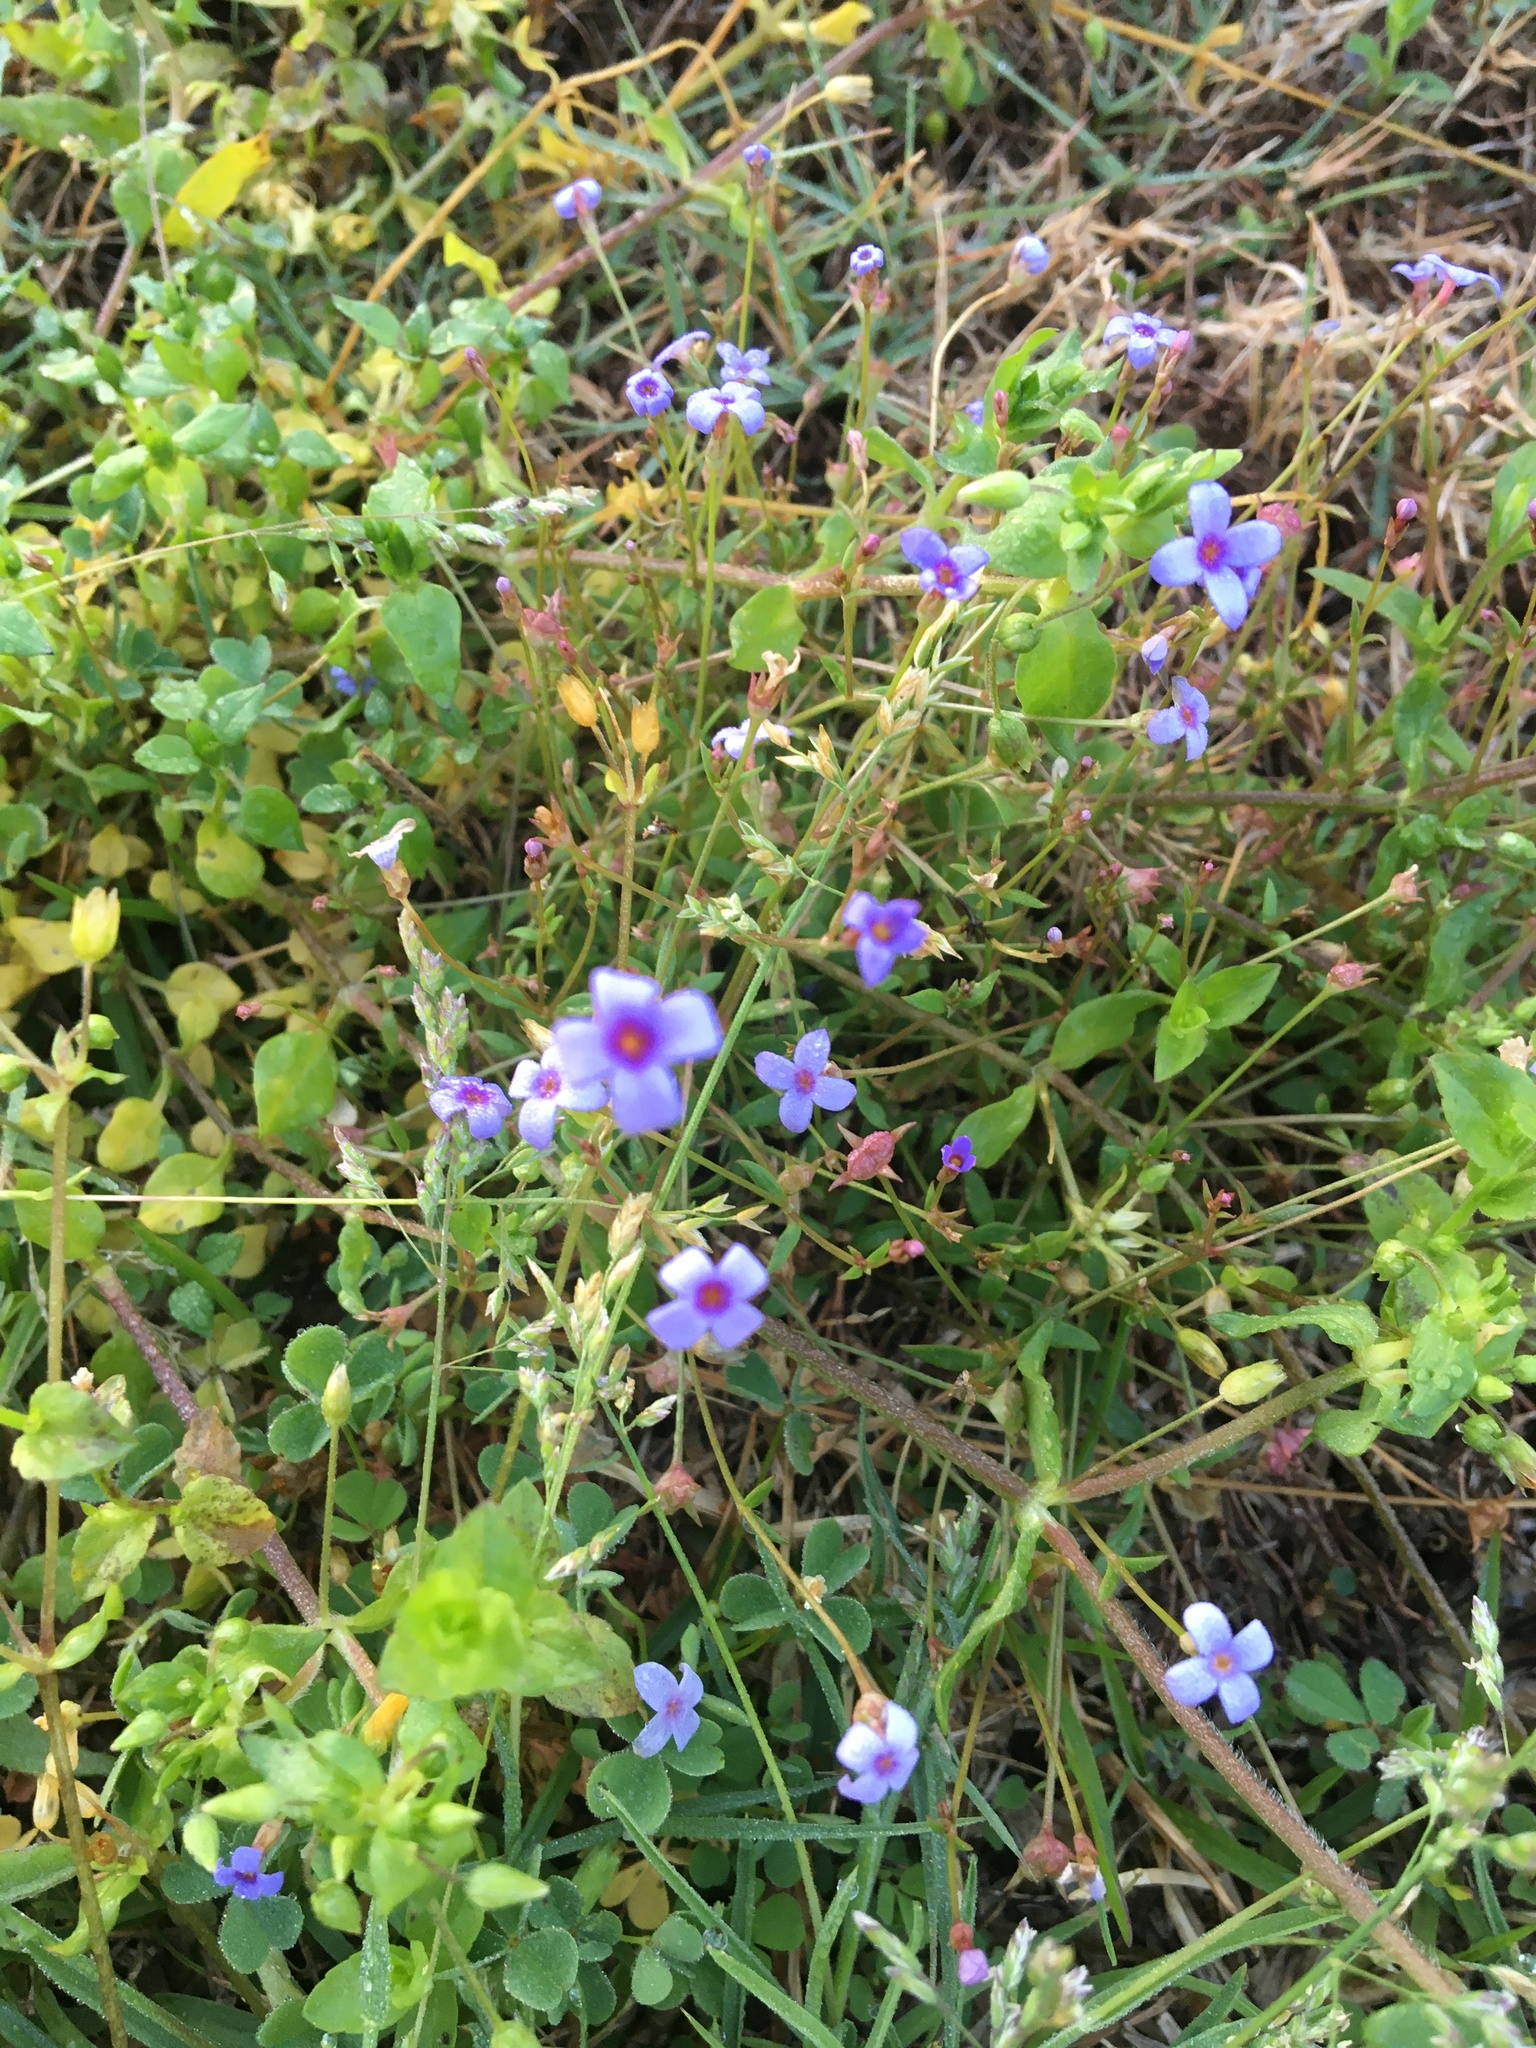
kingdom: Plantae
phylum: Tracheophyta
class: Magnoliopsida
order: Gentianales
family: Rubiaceae
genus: Houstonia
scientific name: Houstonia pusilla
